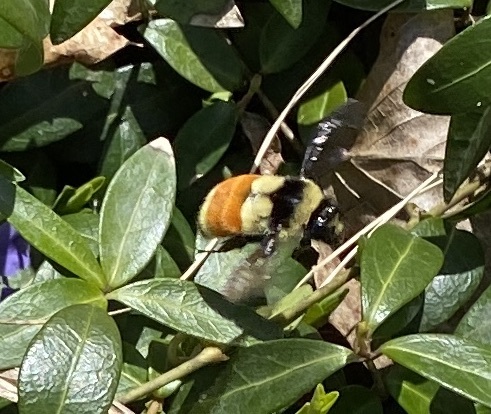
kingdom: Animalia
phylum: Arthropoda
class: Insecta
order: Hymenoptera
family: Apidae
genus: Bombus
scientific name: Bombus ternarius
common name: Tri-colored bumble bee
